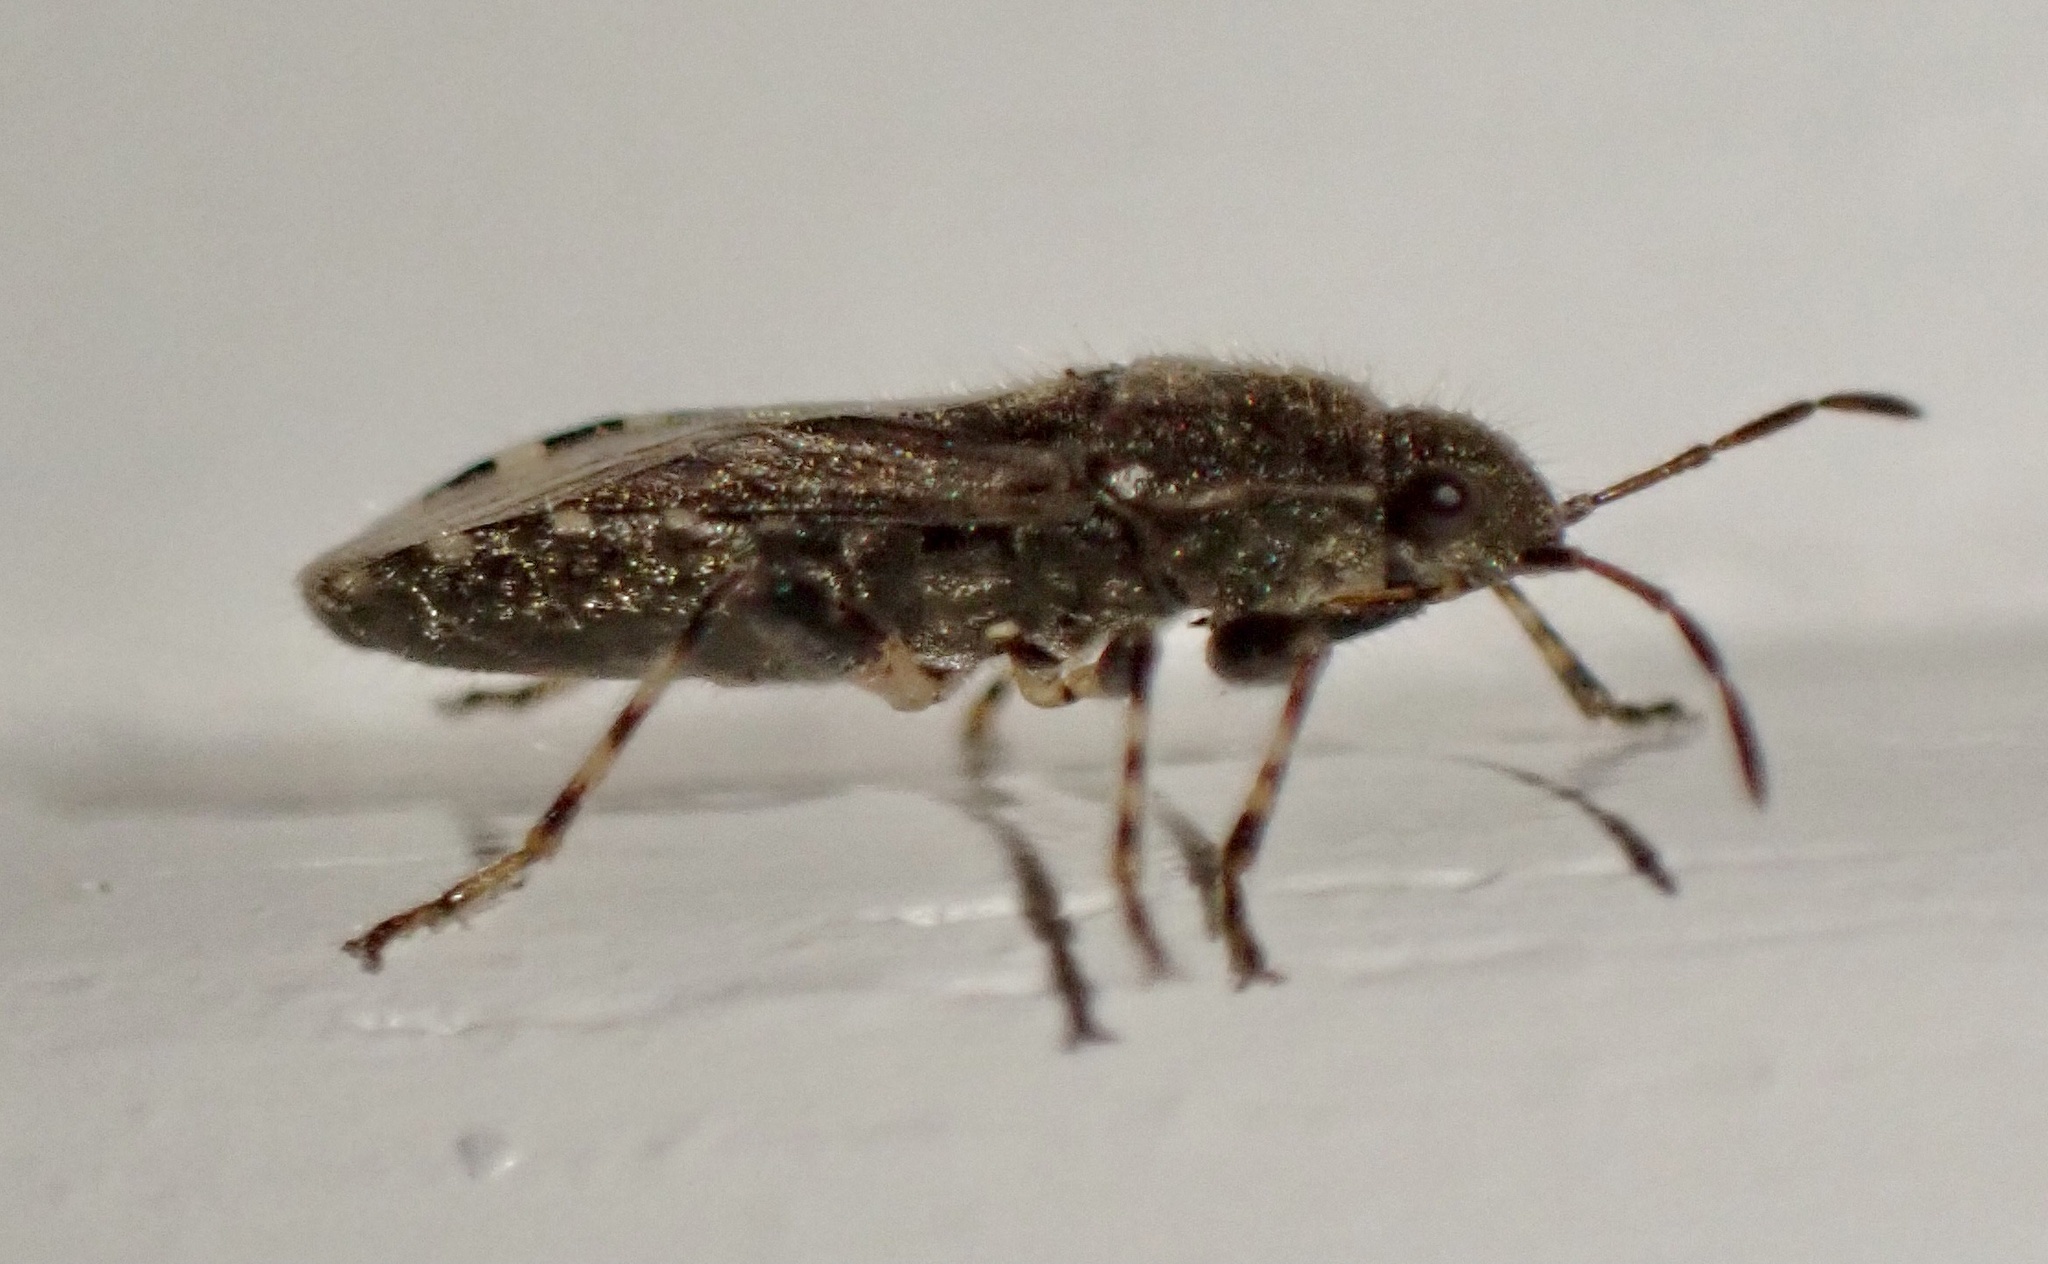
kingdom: Animalia
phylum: Arthropoda
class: Insecta
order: Hemiptera
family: Heterogastridae
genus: Heterogaster
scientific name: Heterogaster urticae
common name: Seed bug
